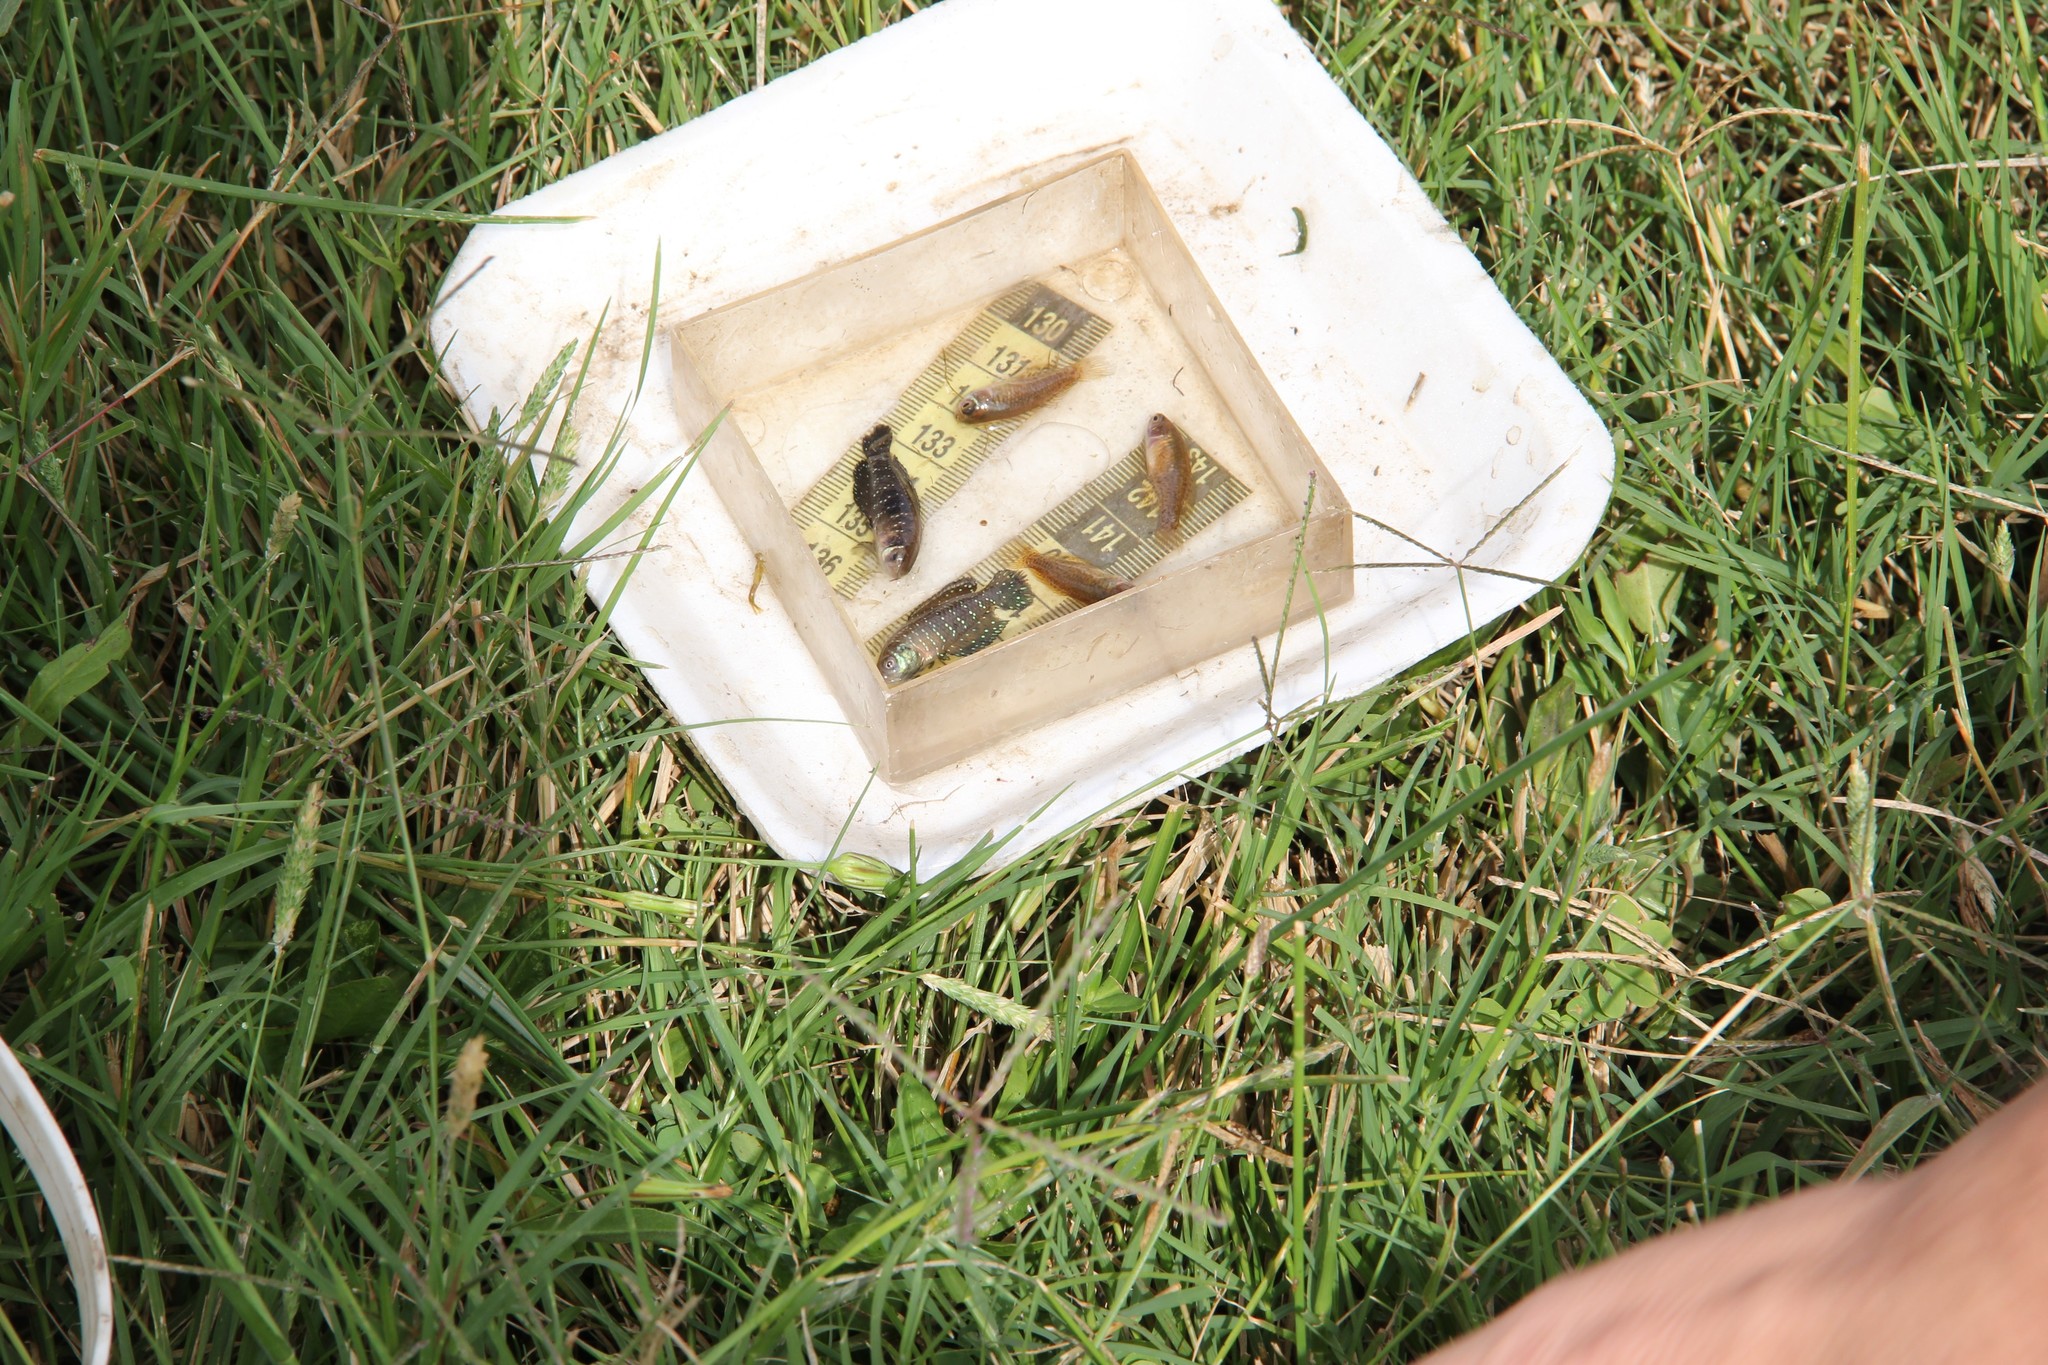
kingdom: Animalia
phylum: Chordata
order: Cyprinodontiformes
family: Rivulidae
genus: Austrolebias
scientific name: Austrolebias
